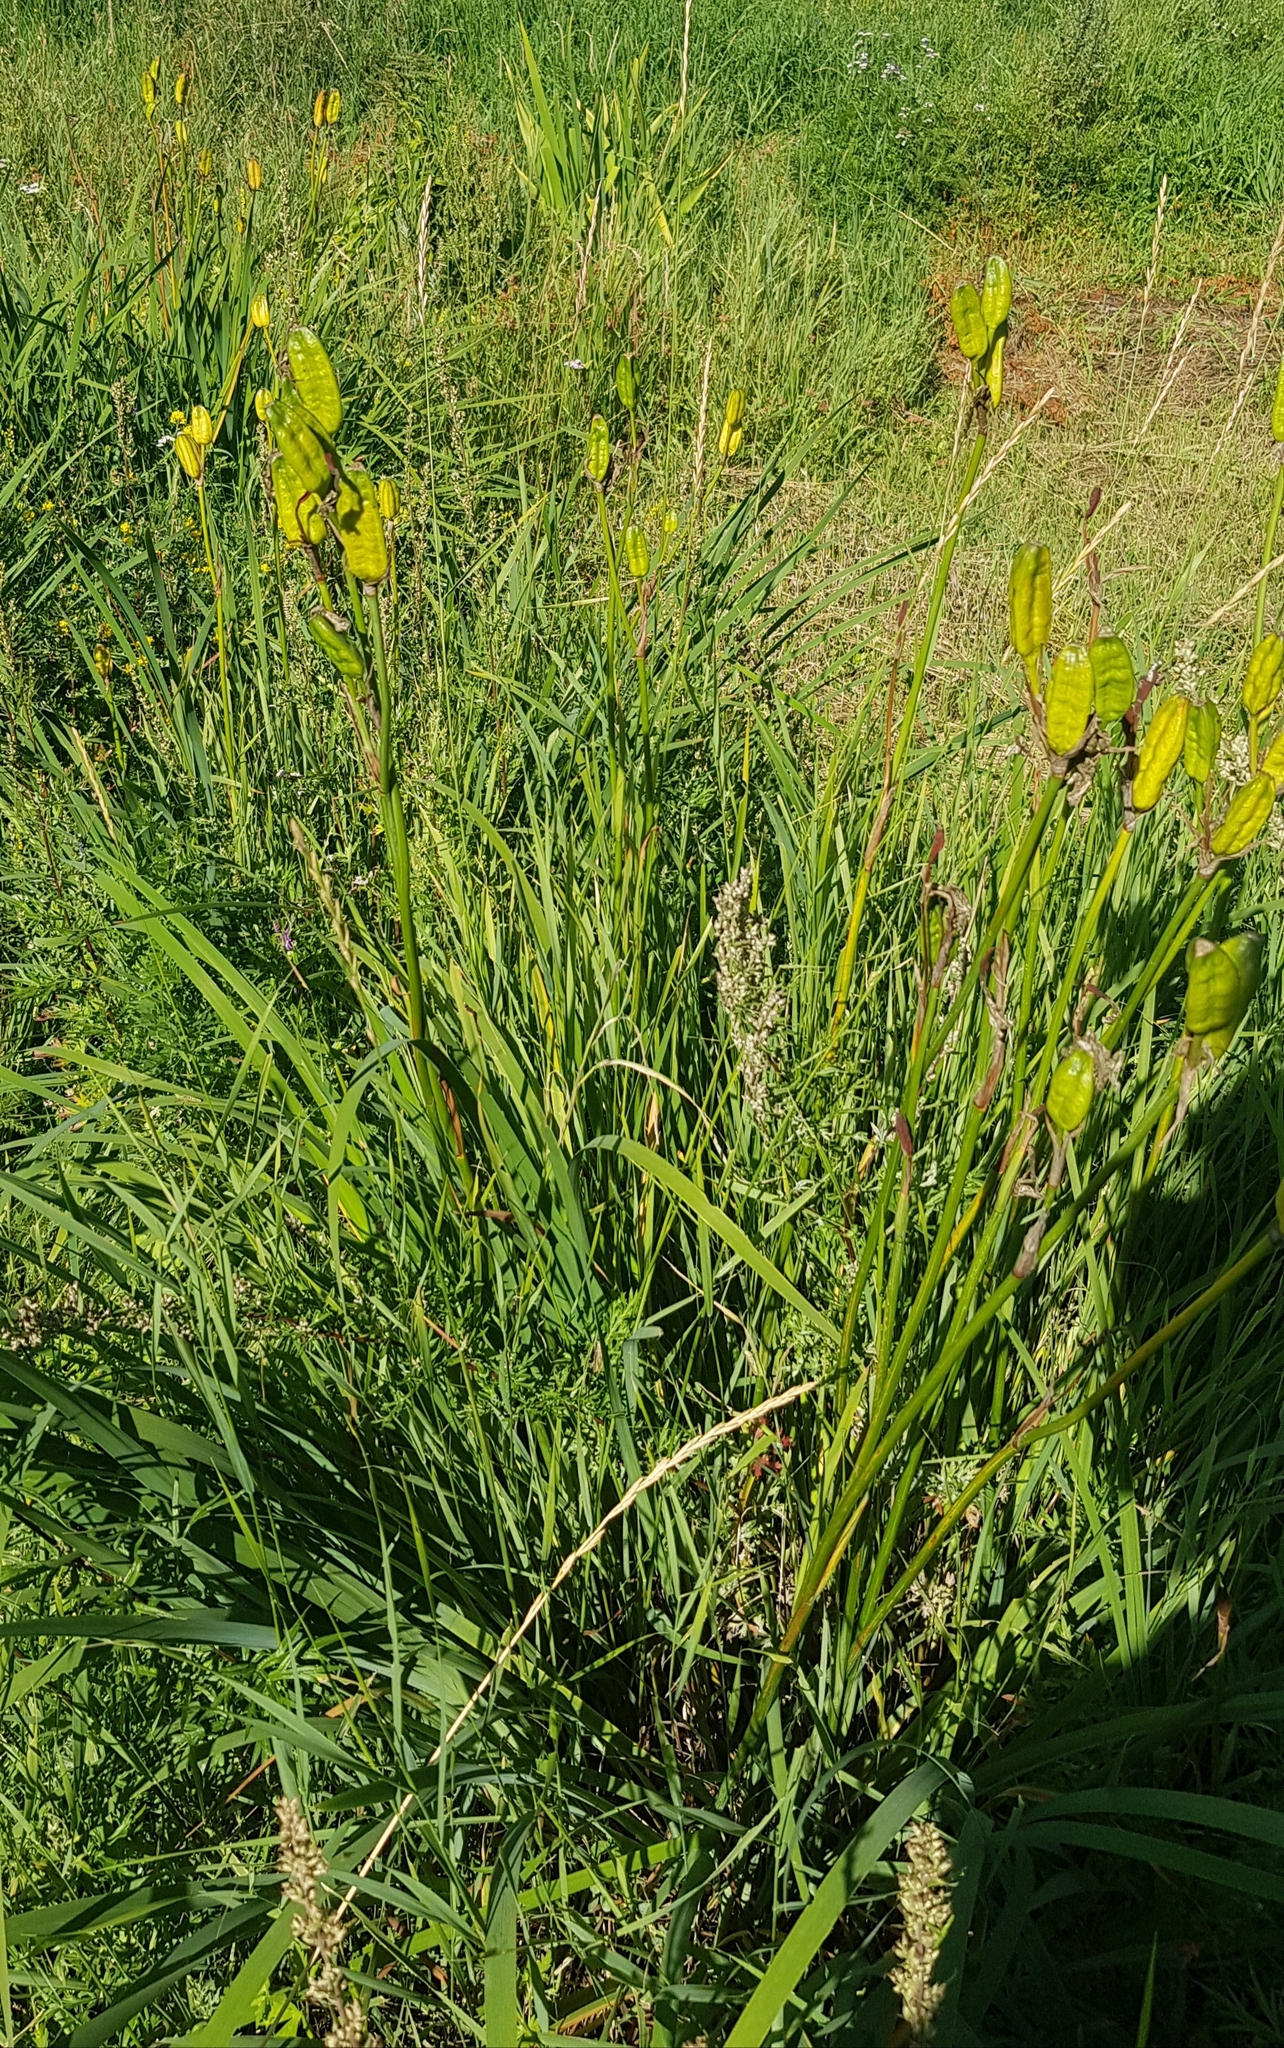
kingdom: Plantae
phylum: Tracheophyta
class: Liliopsida
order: Asparagales
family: Iridaceae
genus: Iris
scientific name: Iris sanguinea
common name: Blood iris
